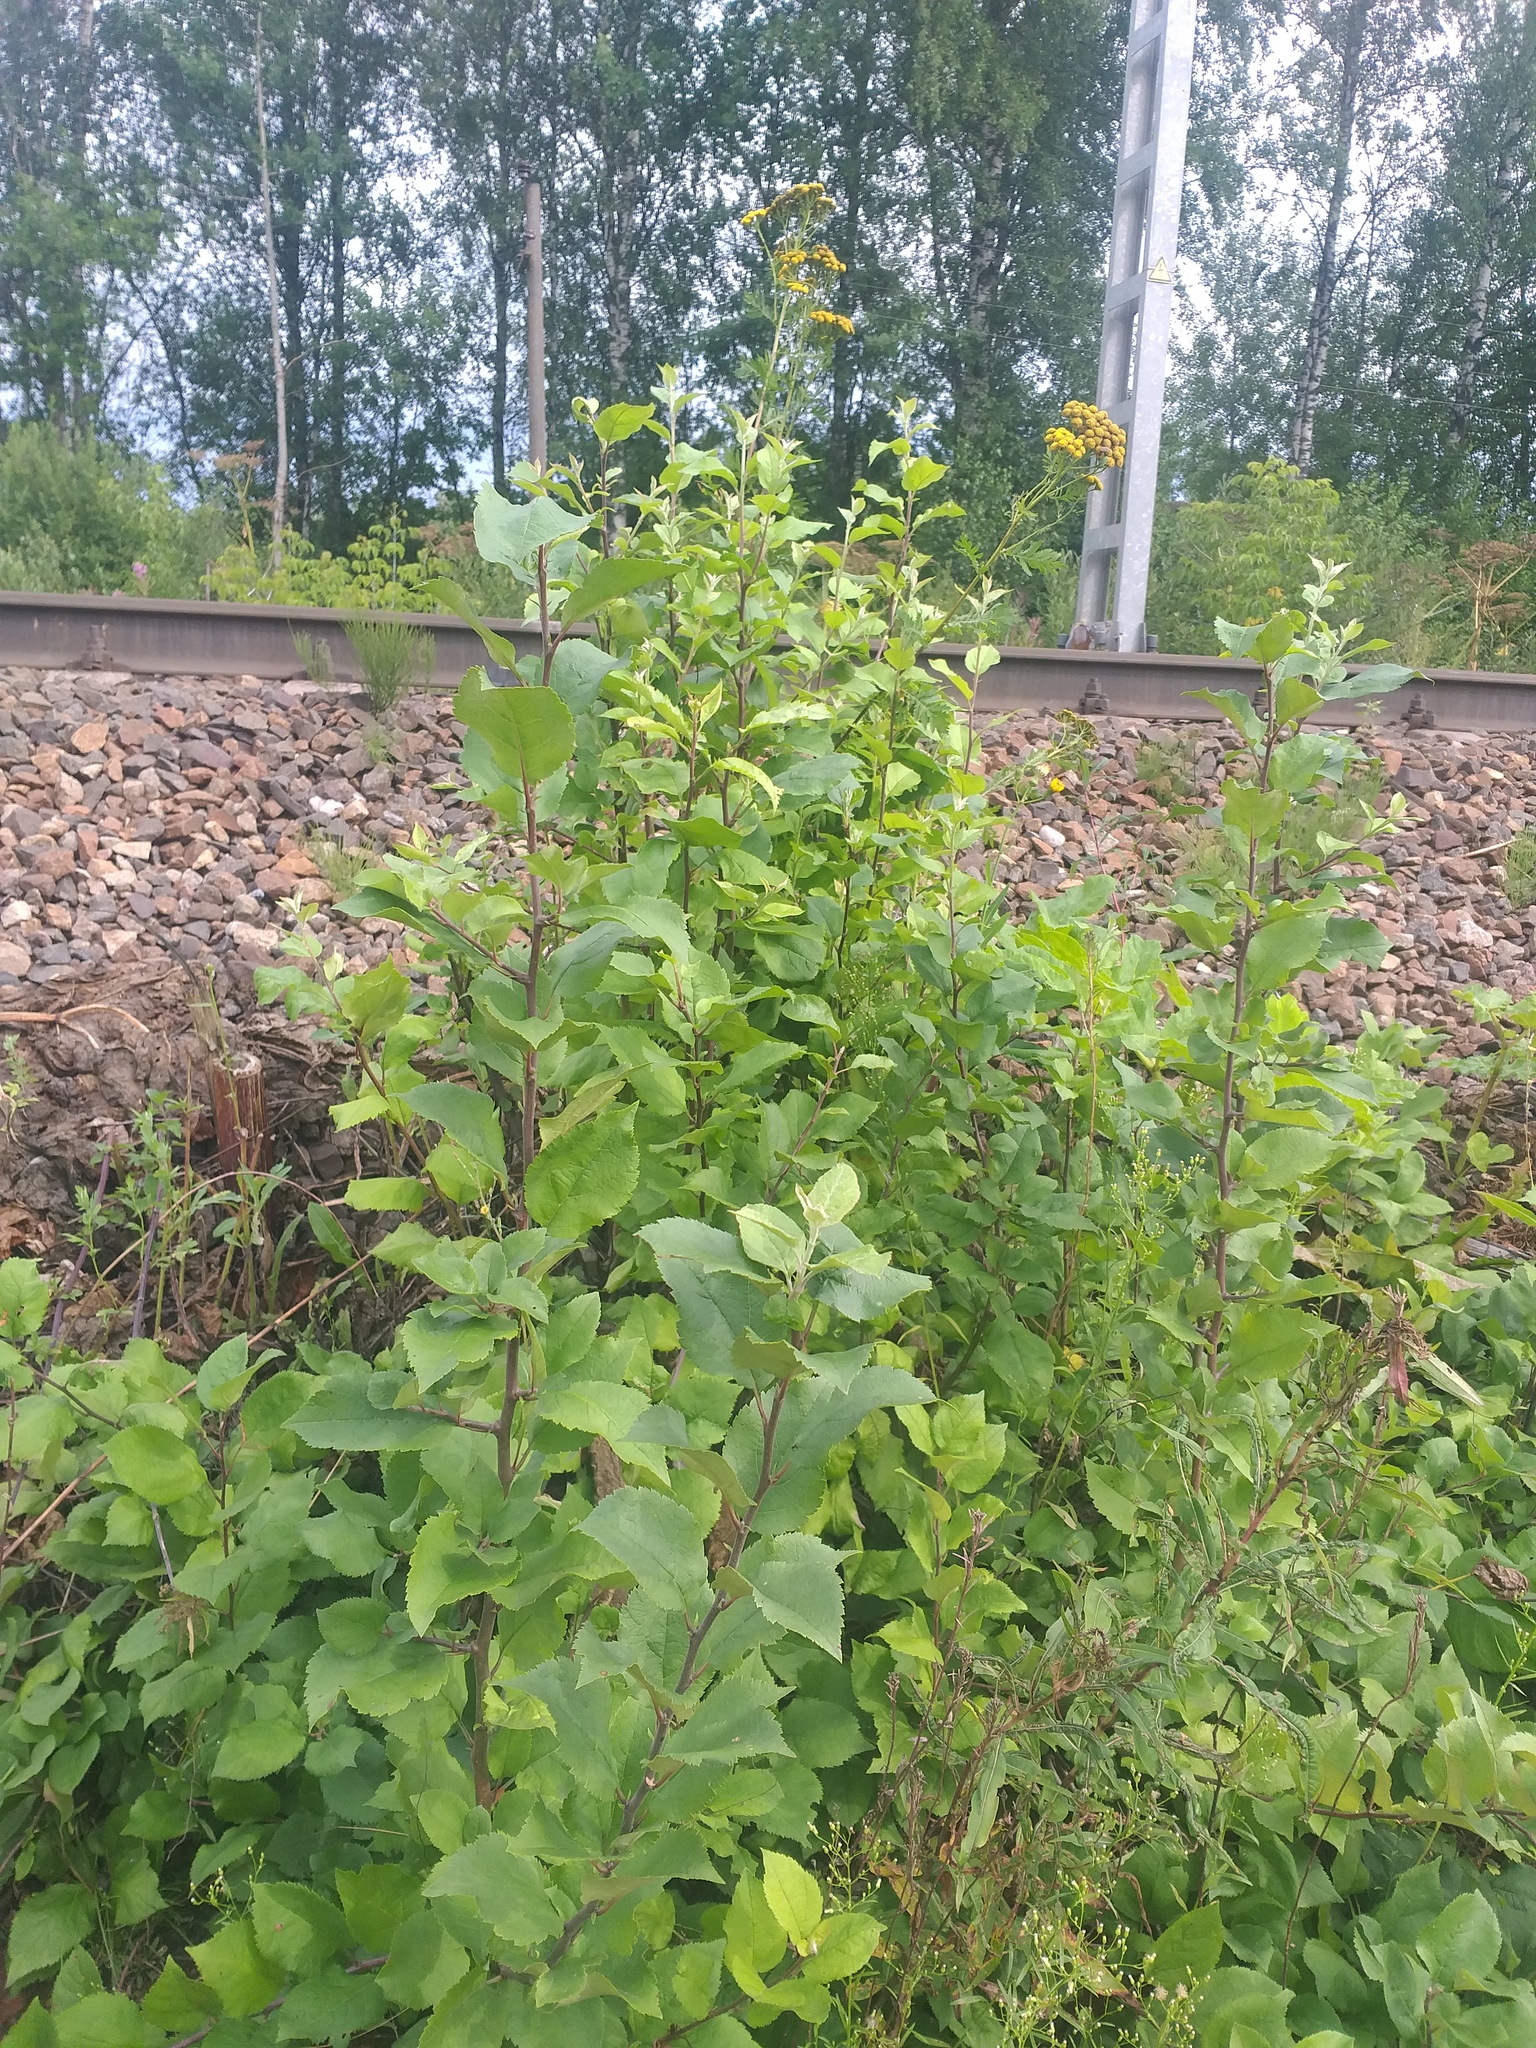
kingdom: Plantae
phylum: Tracheophyta
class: Magnoliopsida
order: Rosales
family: Rosaceae
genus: Malus
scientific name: Malus domestica
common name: Apple
